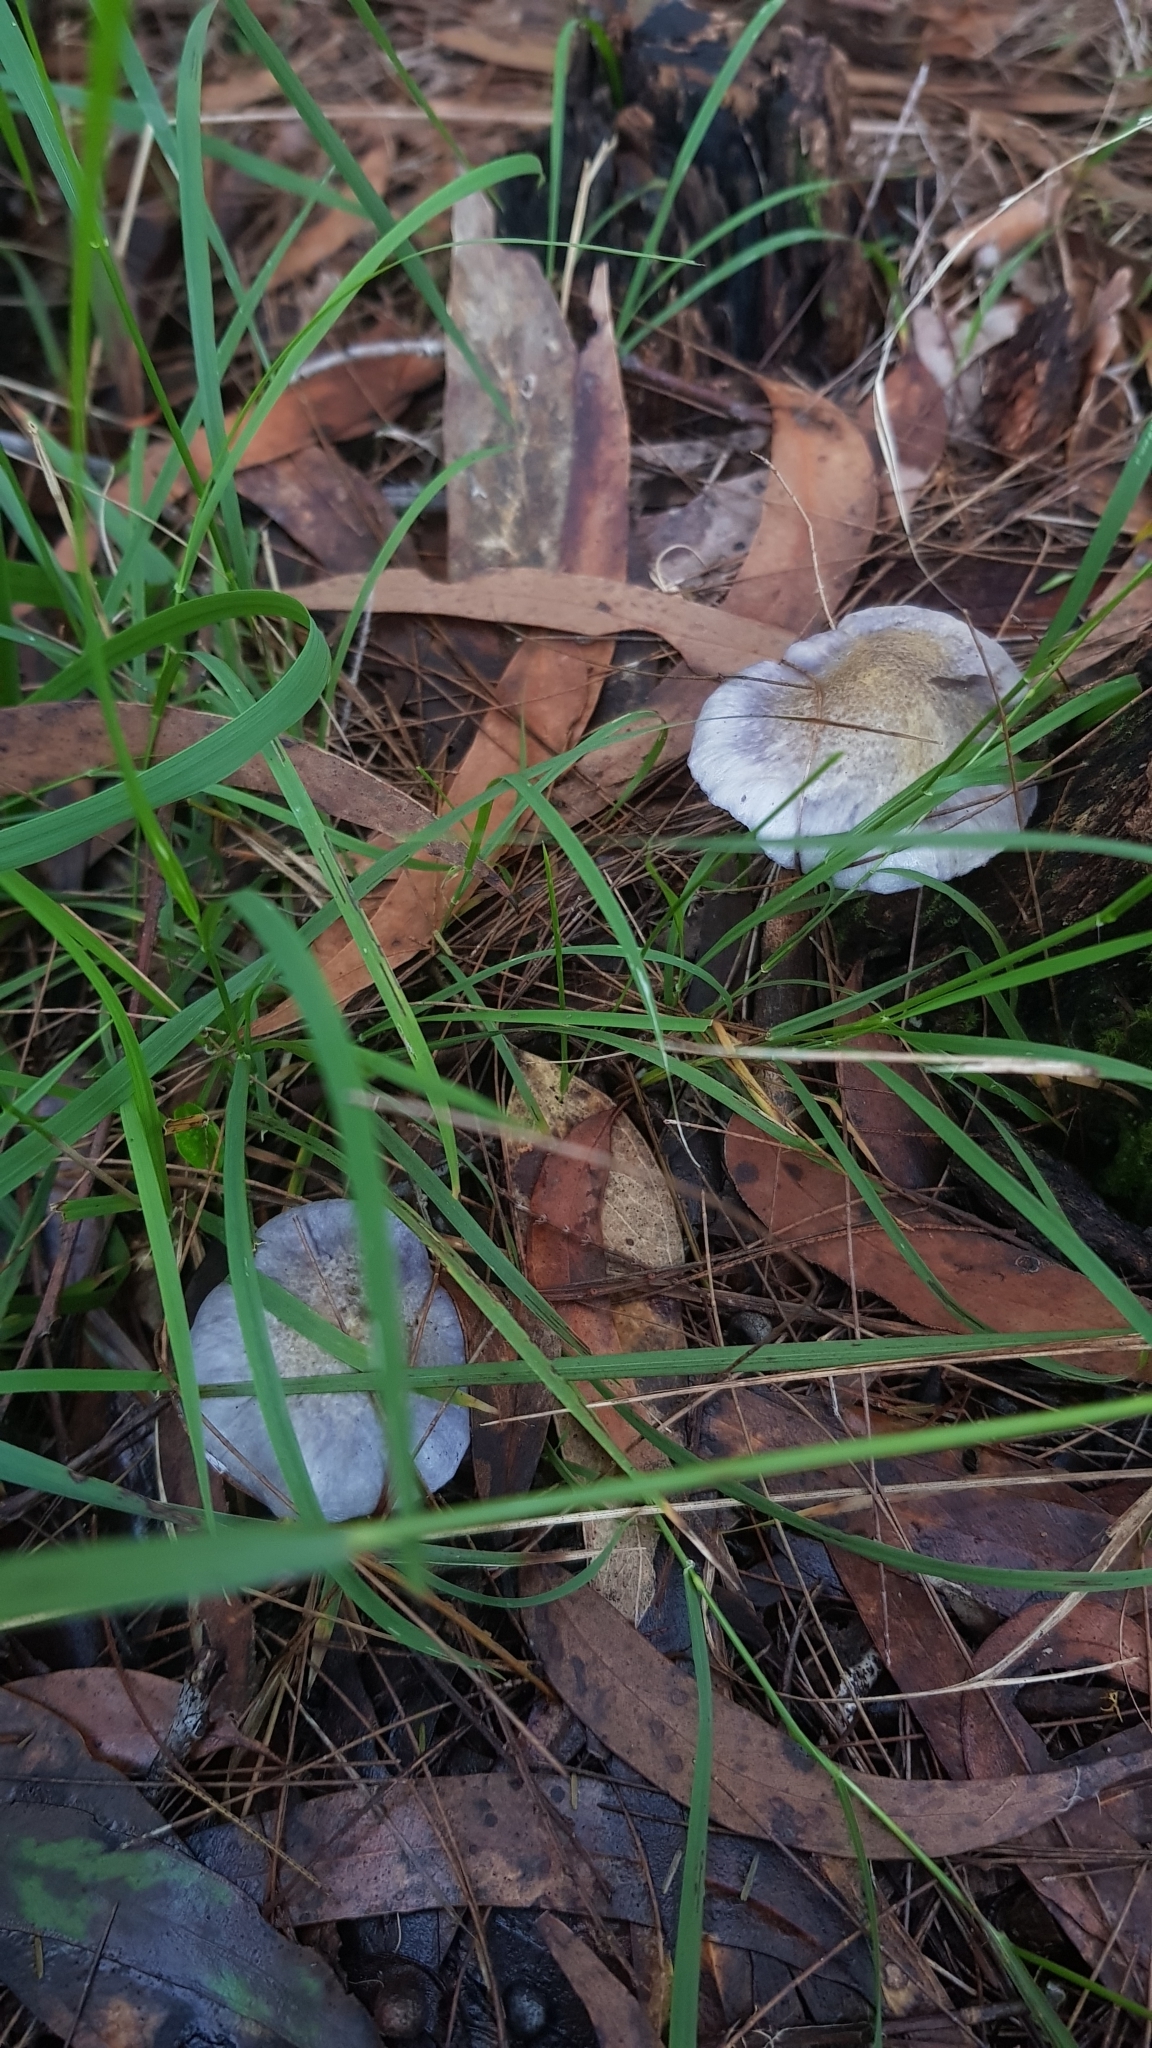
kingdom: Fungi
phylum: Basidiomycota
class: Agaricomycetes
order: Agaricales
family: Cortinariaceae
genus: Cortinarius
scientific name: Cortinarius rotundisporus
